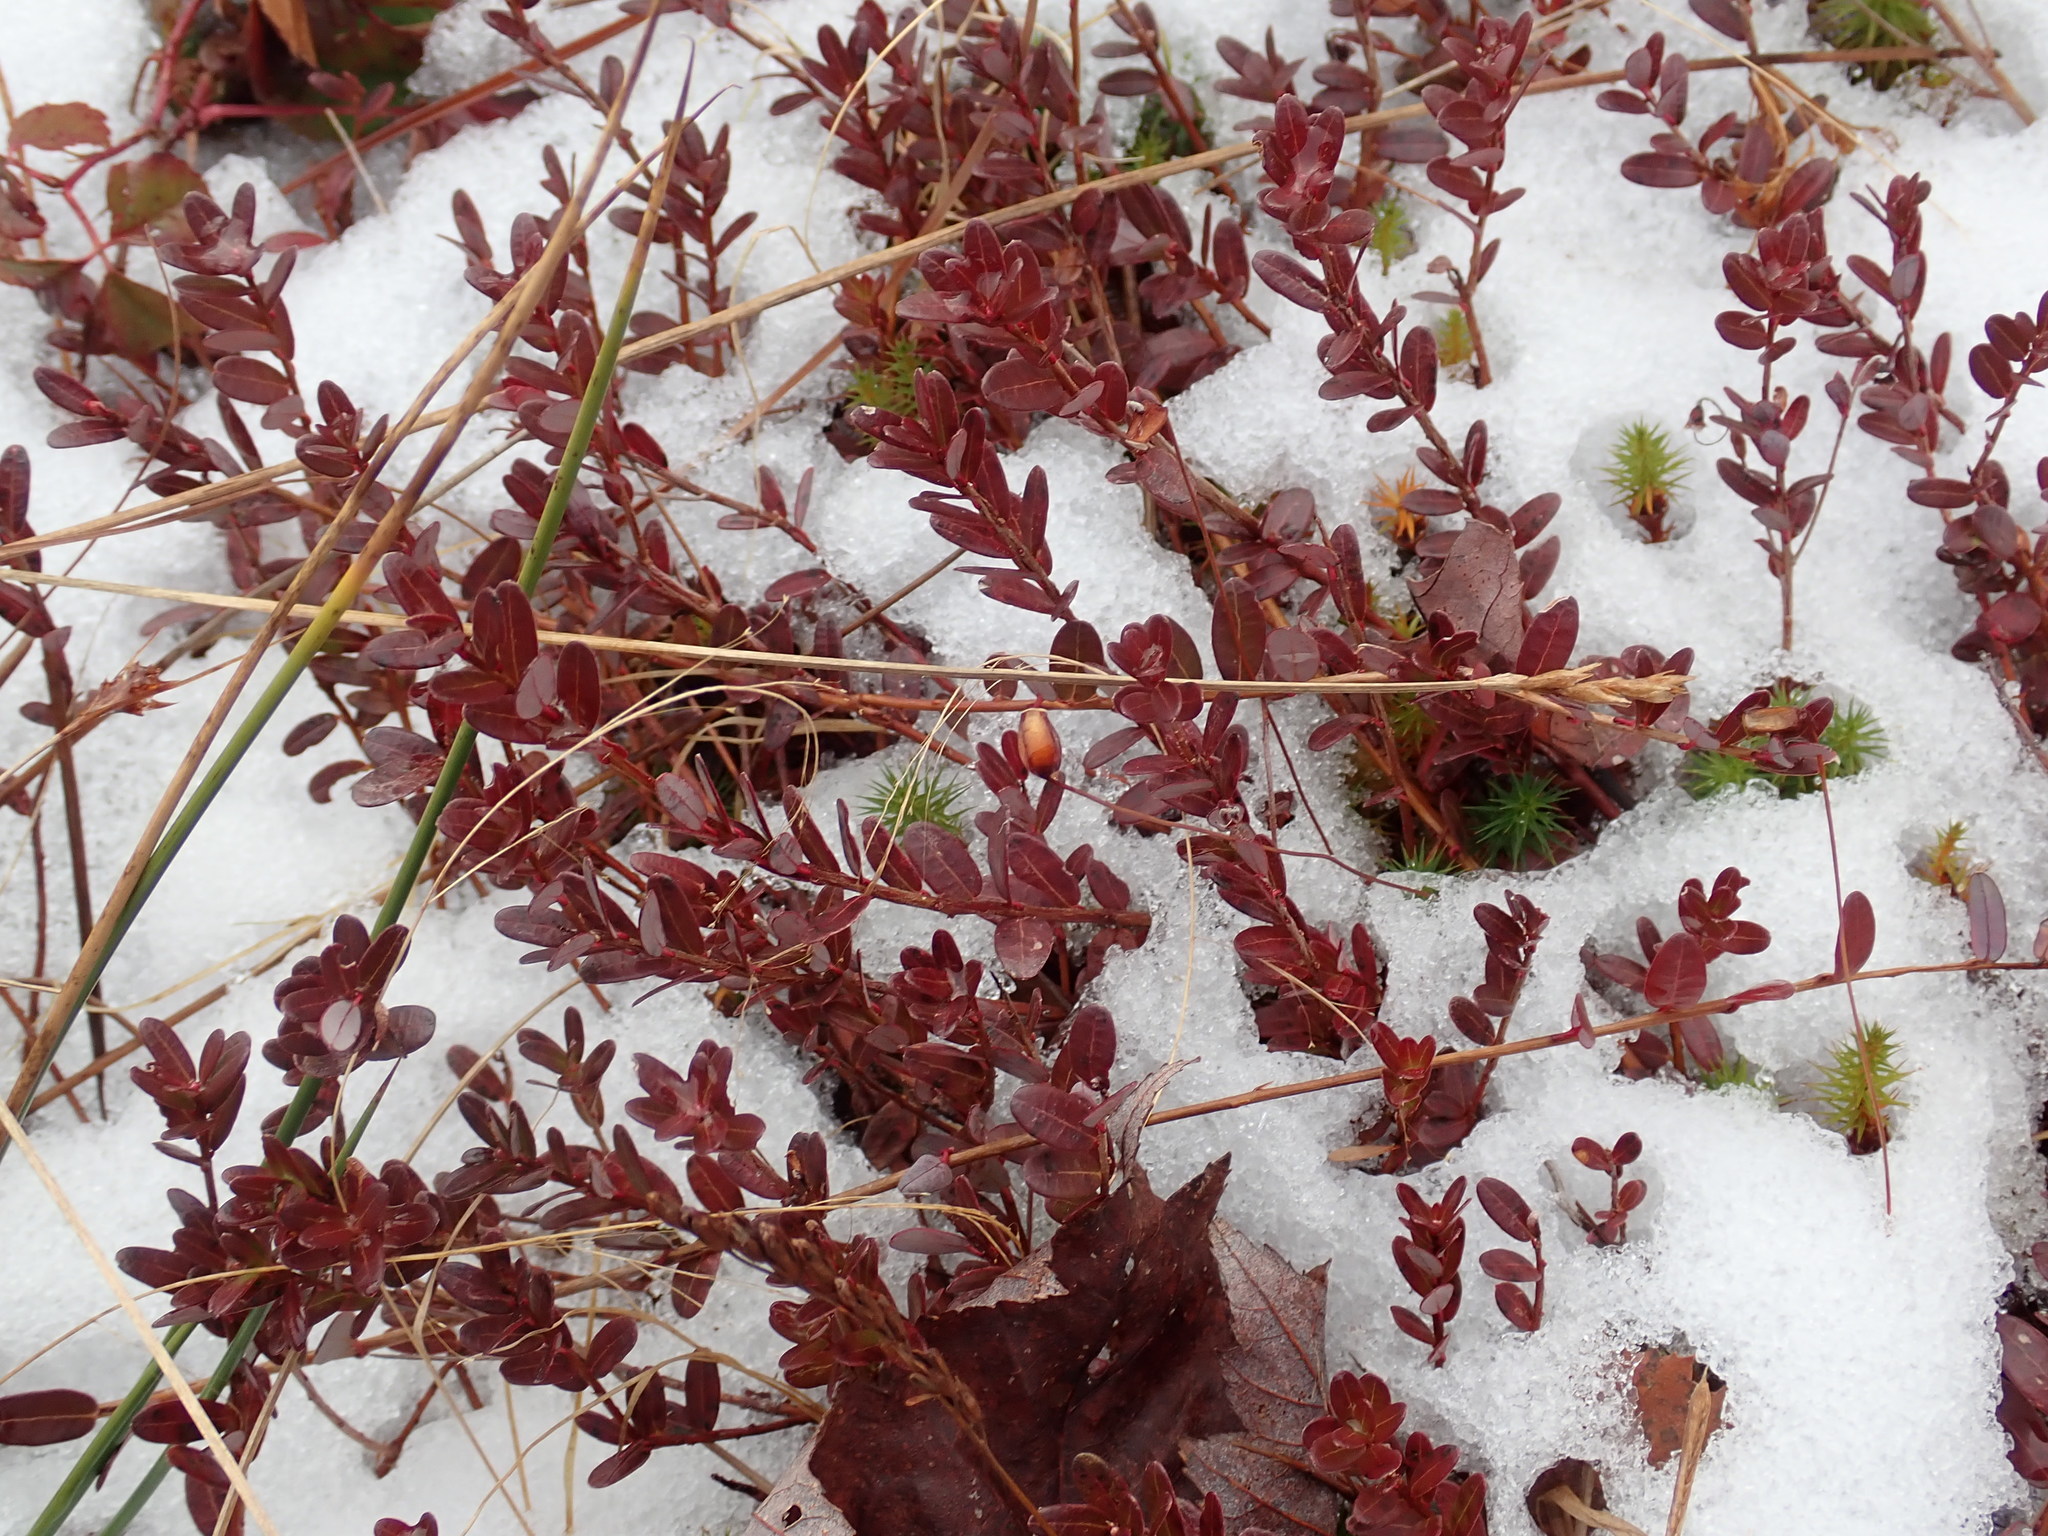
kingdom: Plantae
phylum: Tracheophyta
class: Magnoliopsida
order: Ericales
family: Ericaceae
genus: Vaccinium
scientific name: Vaccinium macrocarpon
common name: American cranberry
